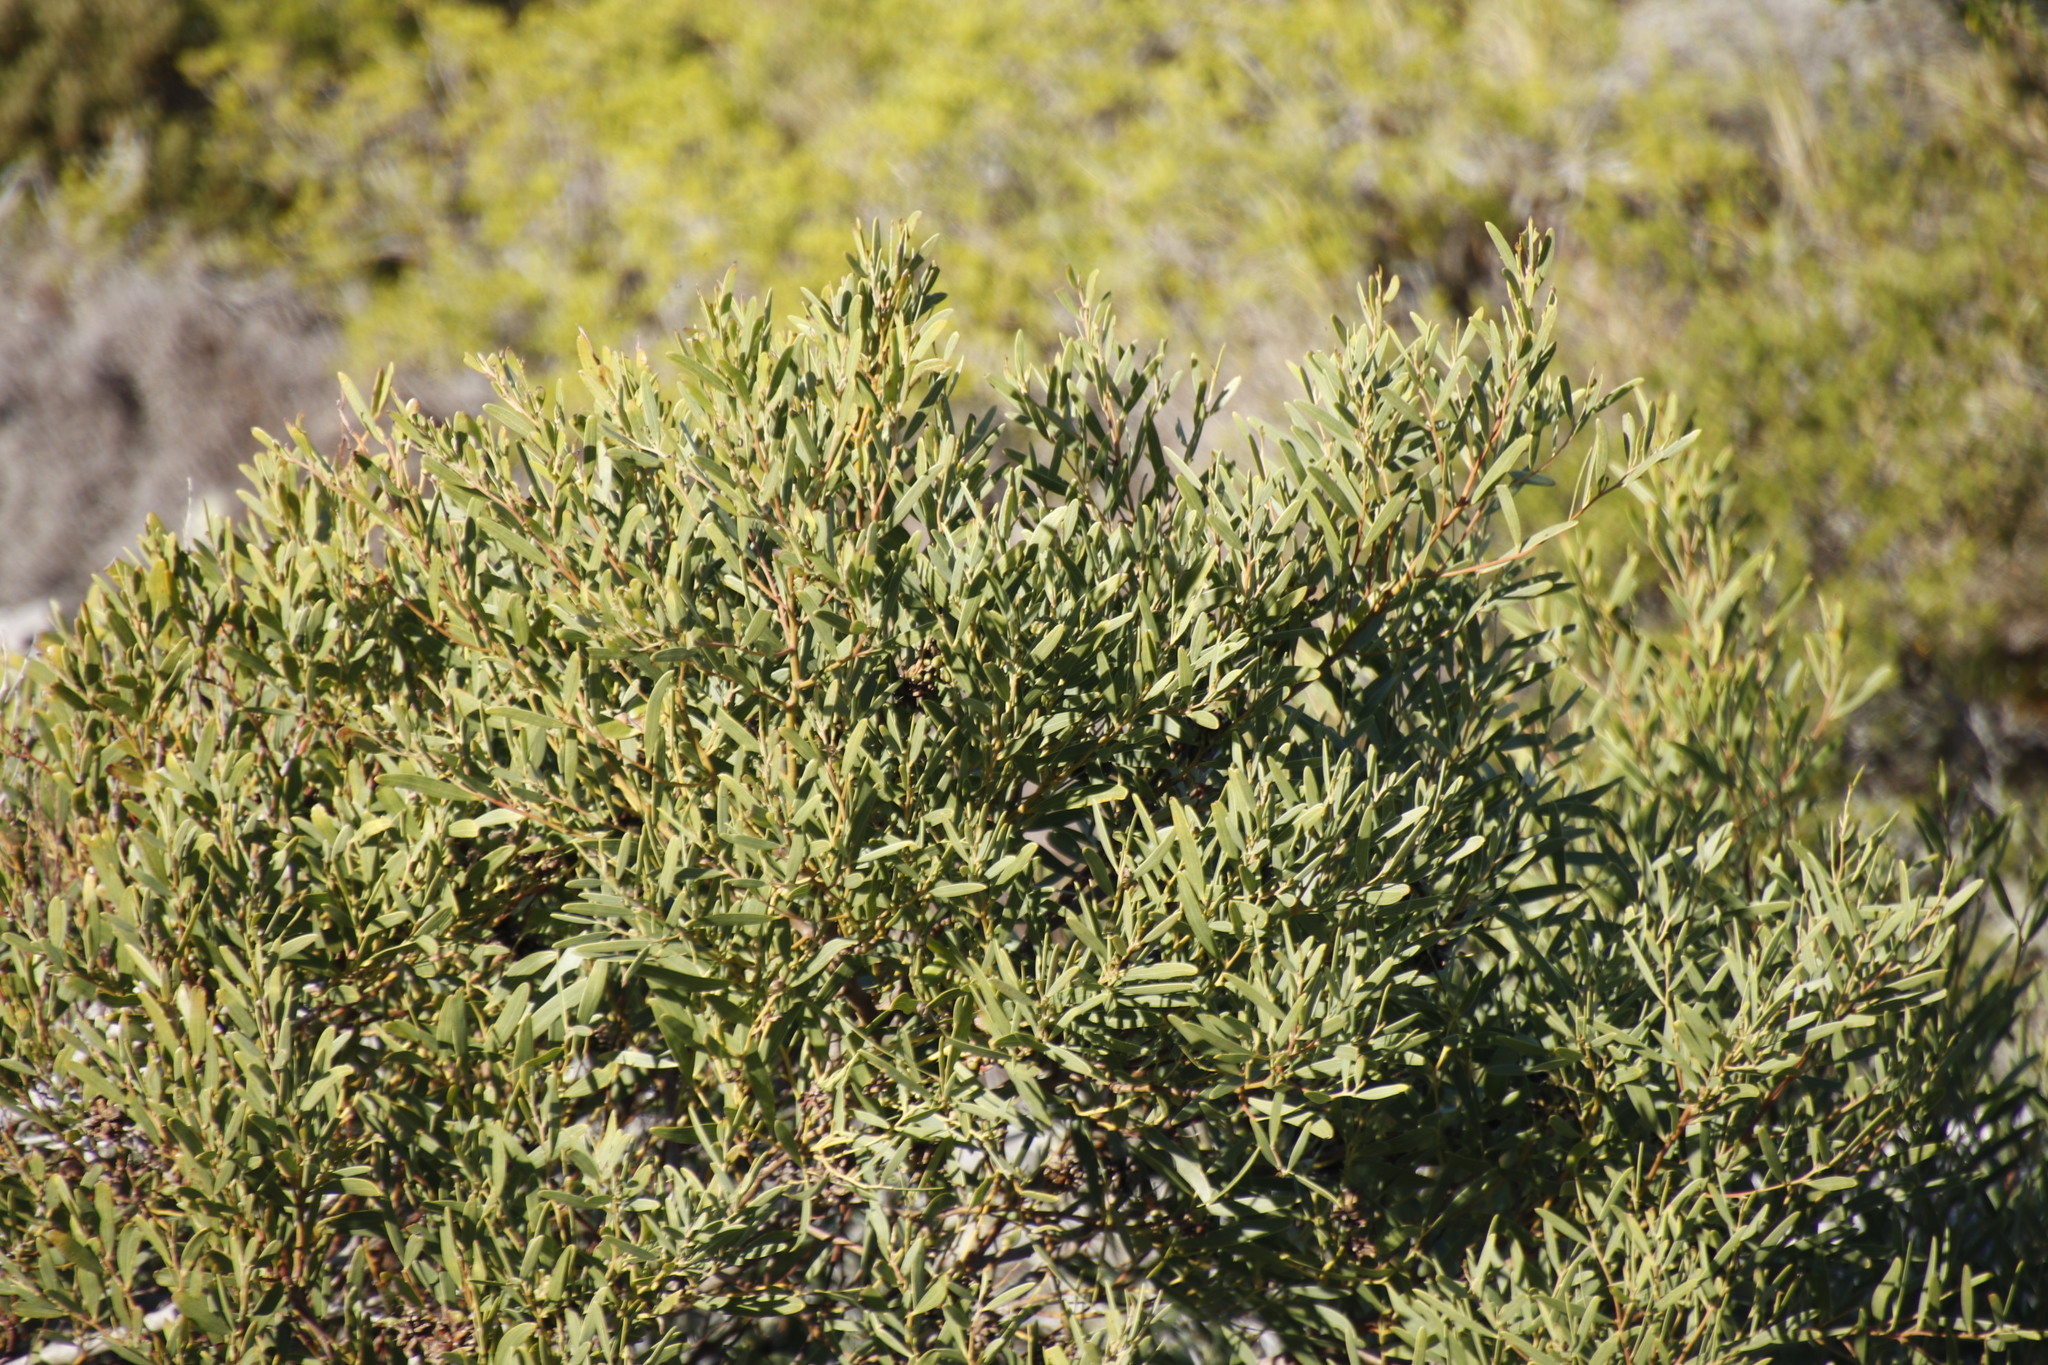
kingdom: Plantae
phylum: Tracheophyta
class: Magnoliopsida
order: Fabales
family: Fabaceae
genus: Acacia
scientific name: Acacia cyclops
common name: Coastal wattle
